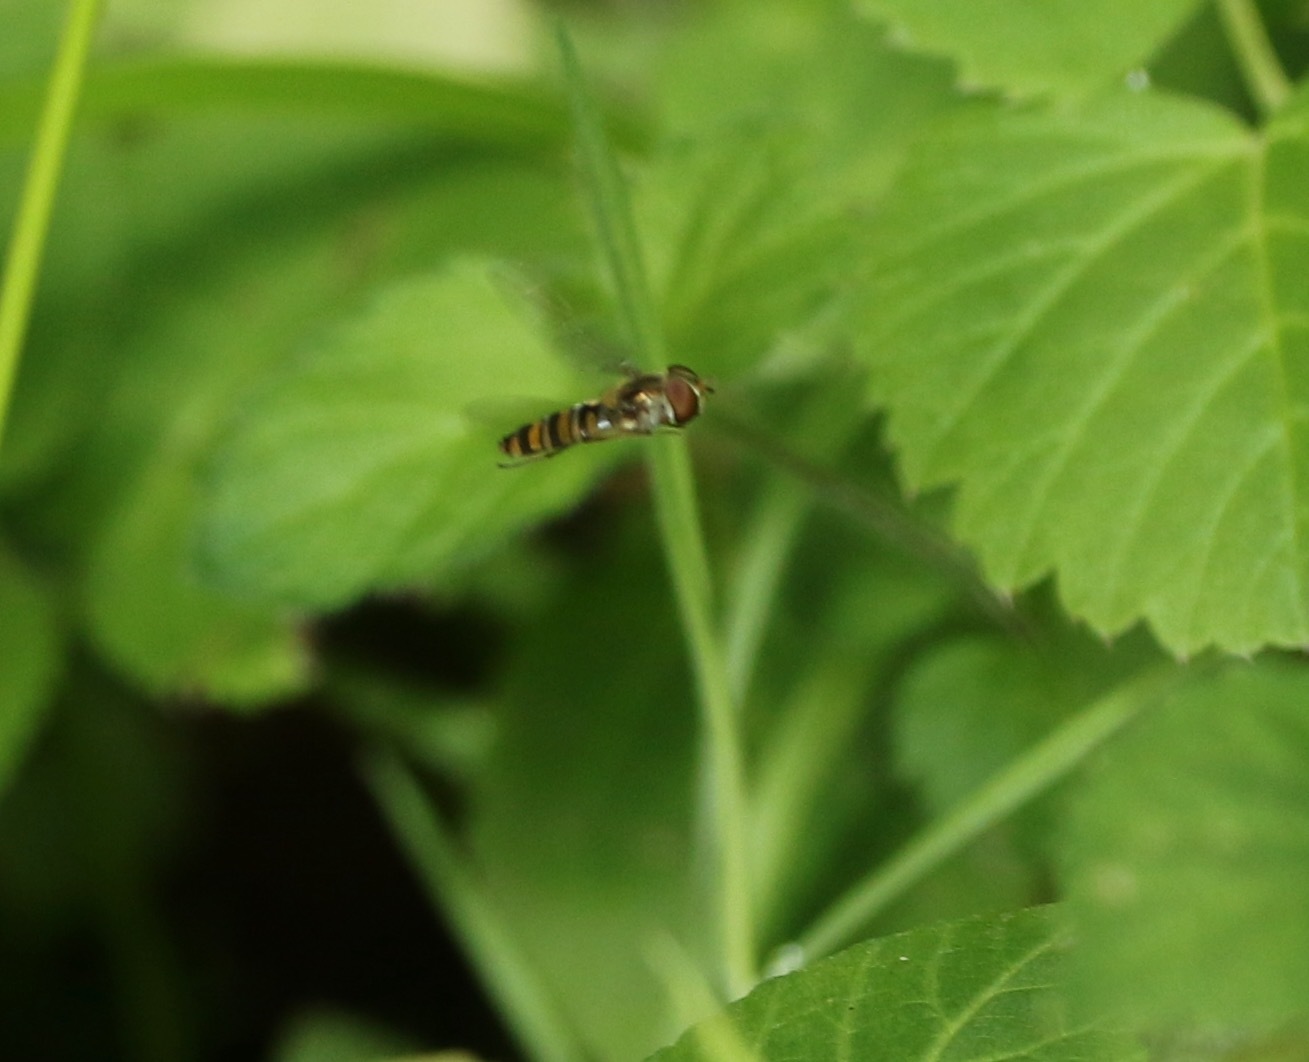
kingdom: Animalia
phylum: Arthropoda
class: Insecta
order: Diptera
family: Syrphidae
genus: Episyrphus
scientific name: Episyrphus balteatus
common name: Marmalade hoverfly
